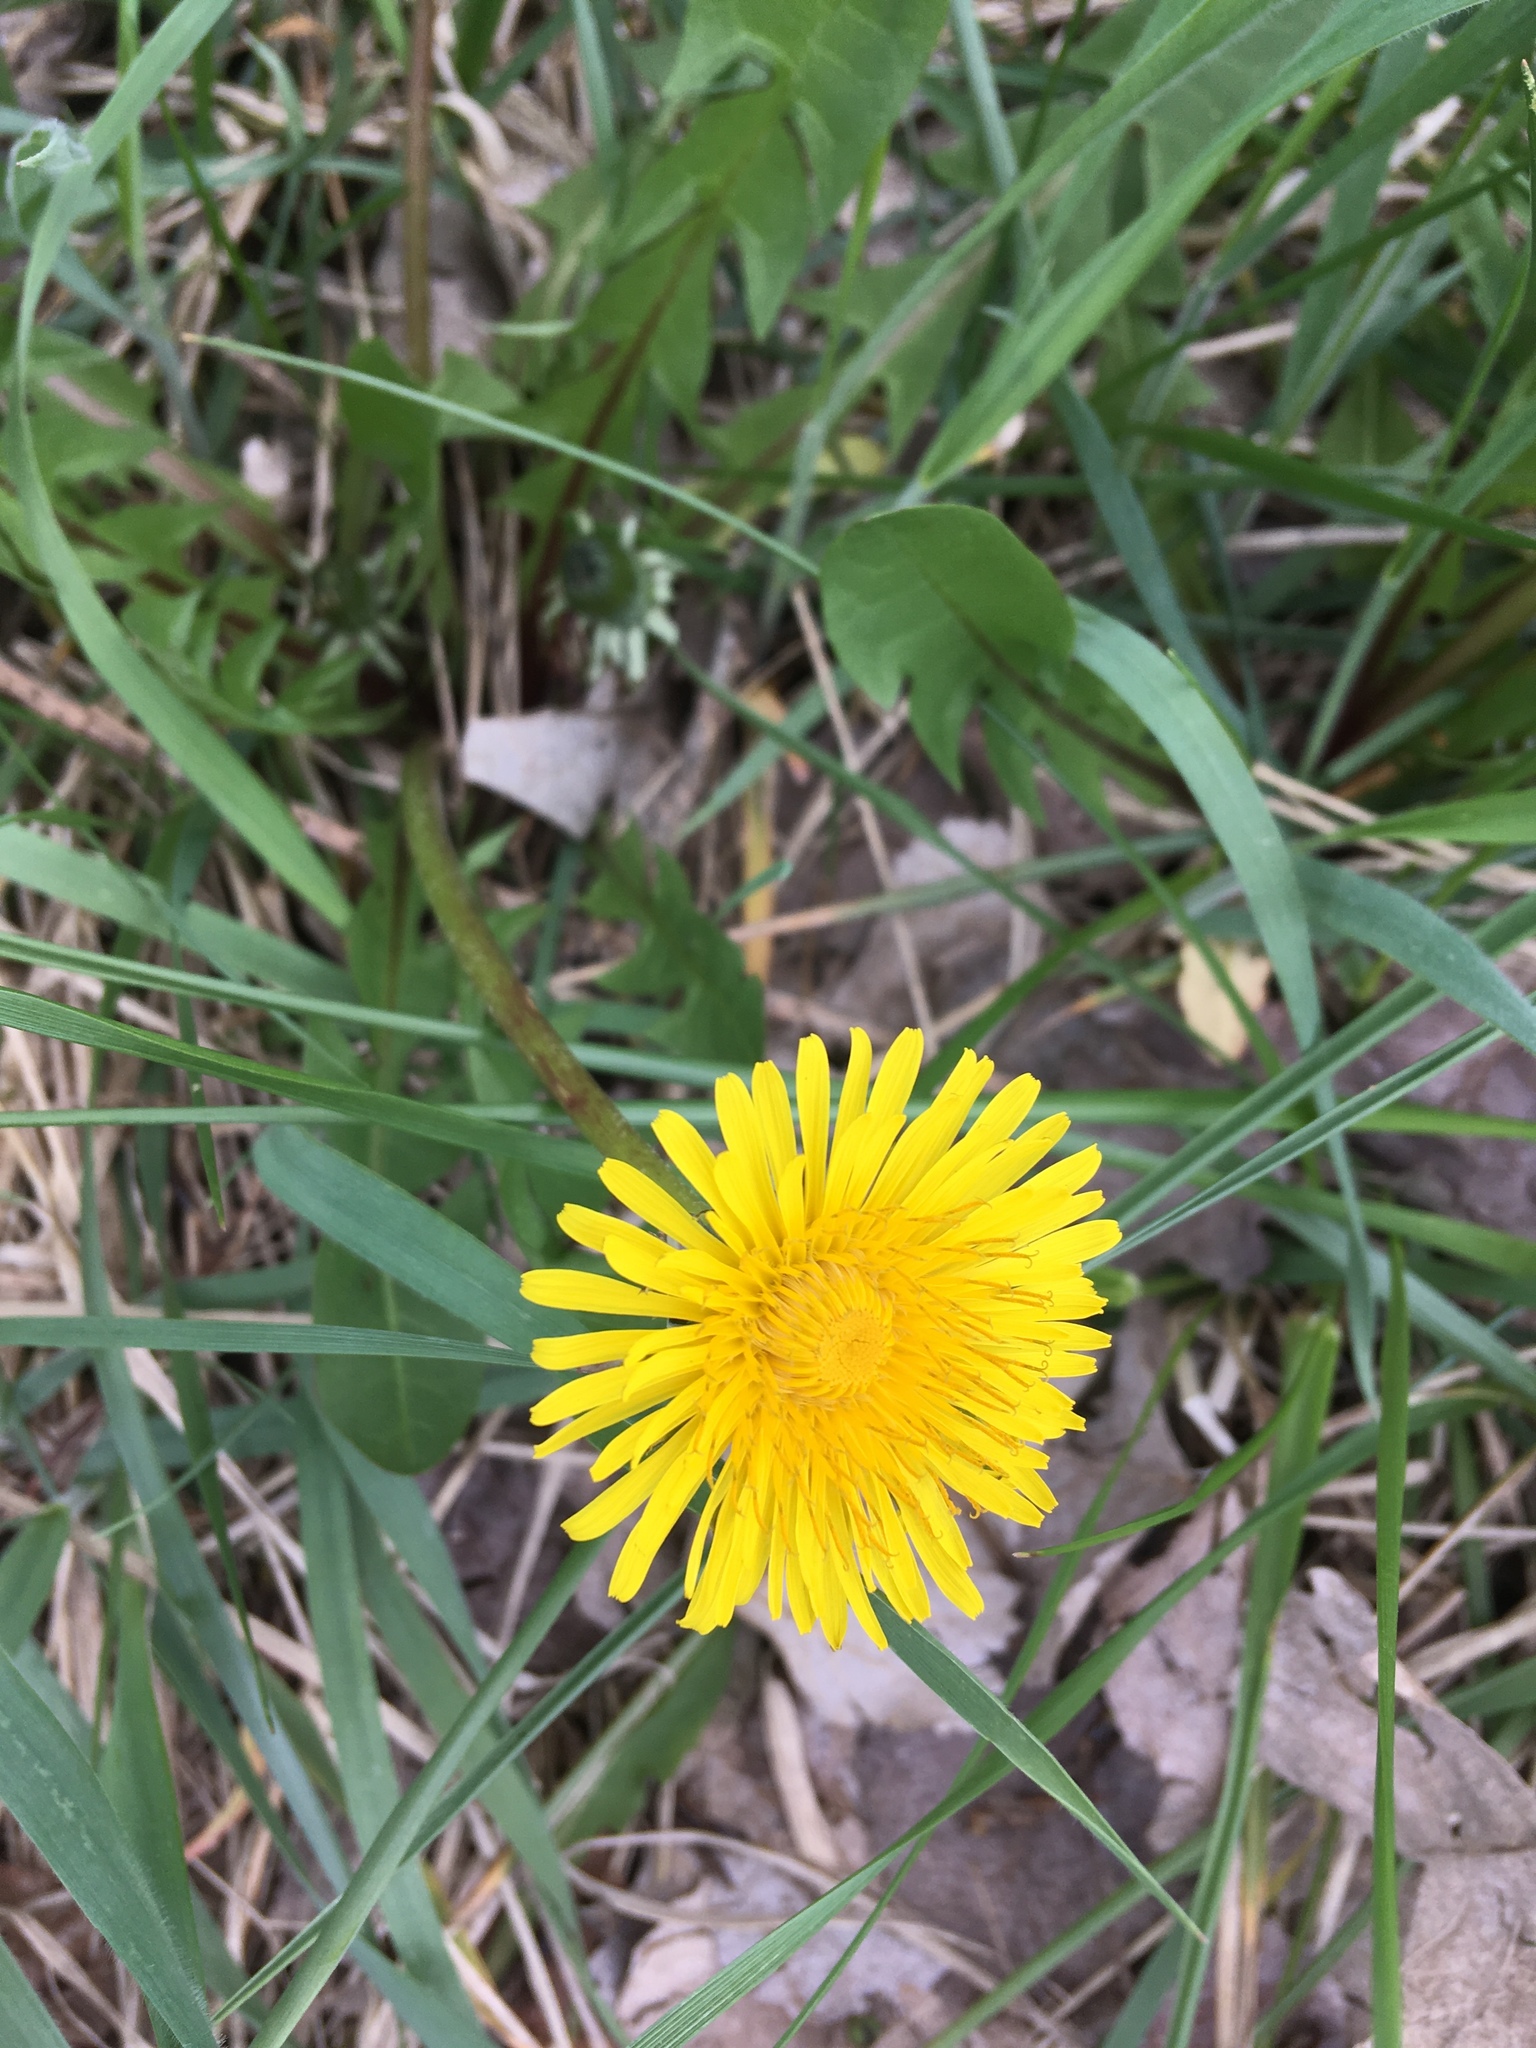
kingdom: Plantae
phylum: Tracheophyta
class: Magnoliopsida
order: Asterales
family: Asteraceae
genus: Taraxacum
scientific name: Taraxacum officinale
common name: Common dandelion
